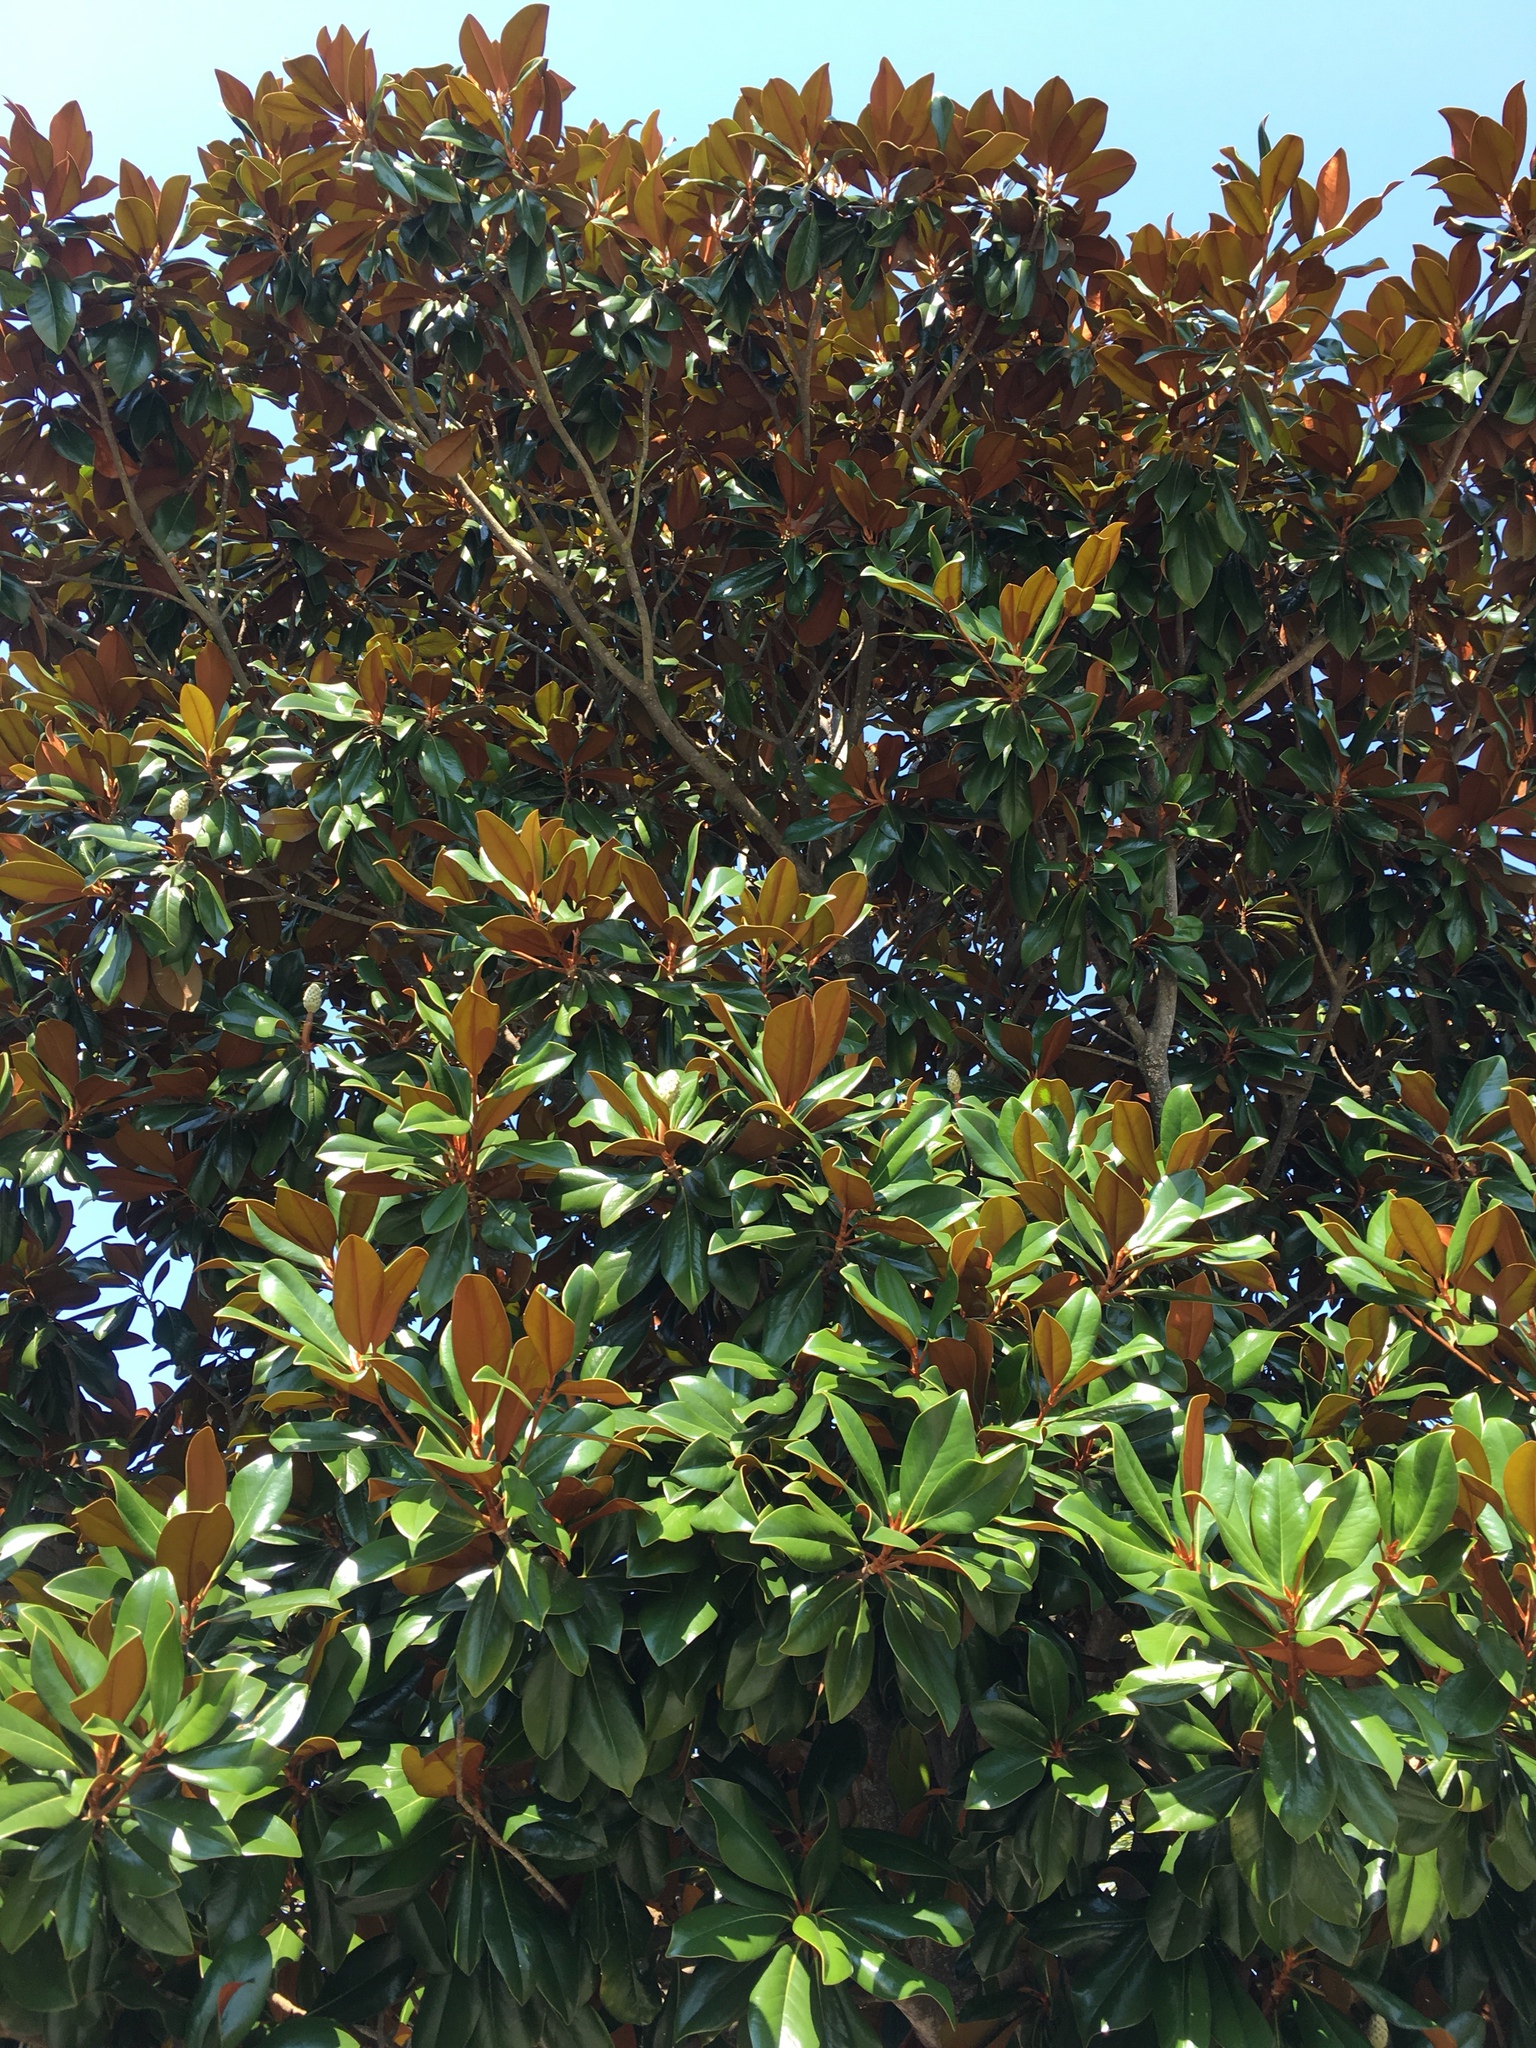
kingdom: Plantae
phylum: Tracheophyta
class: Magnoliopsida
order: Magnoliales
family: Magnoliaceae
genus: Magnolia
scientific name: Magnolia grandiflora
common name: Southern magnolia
